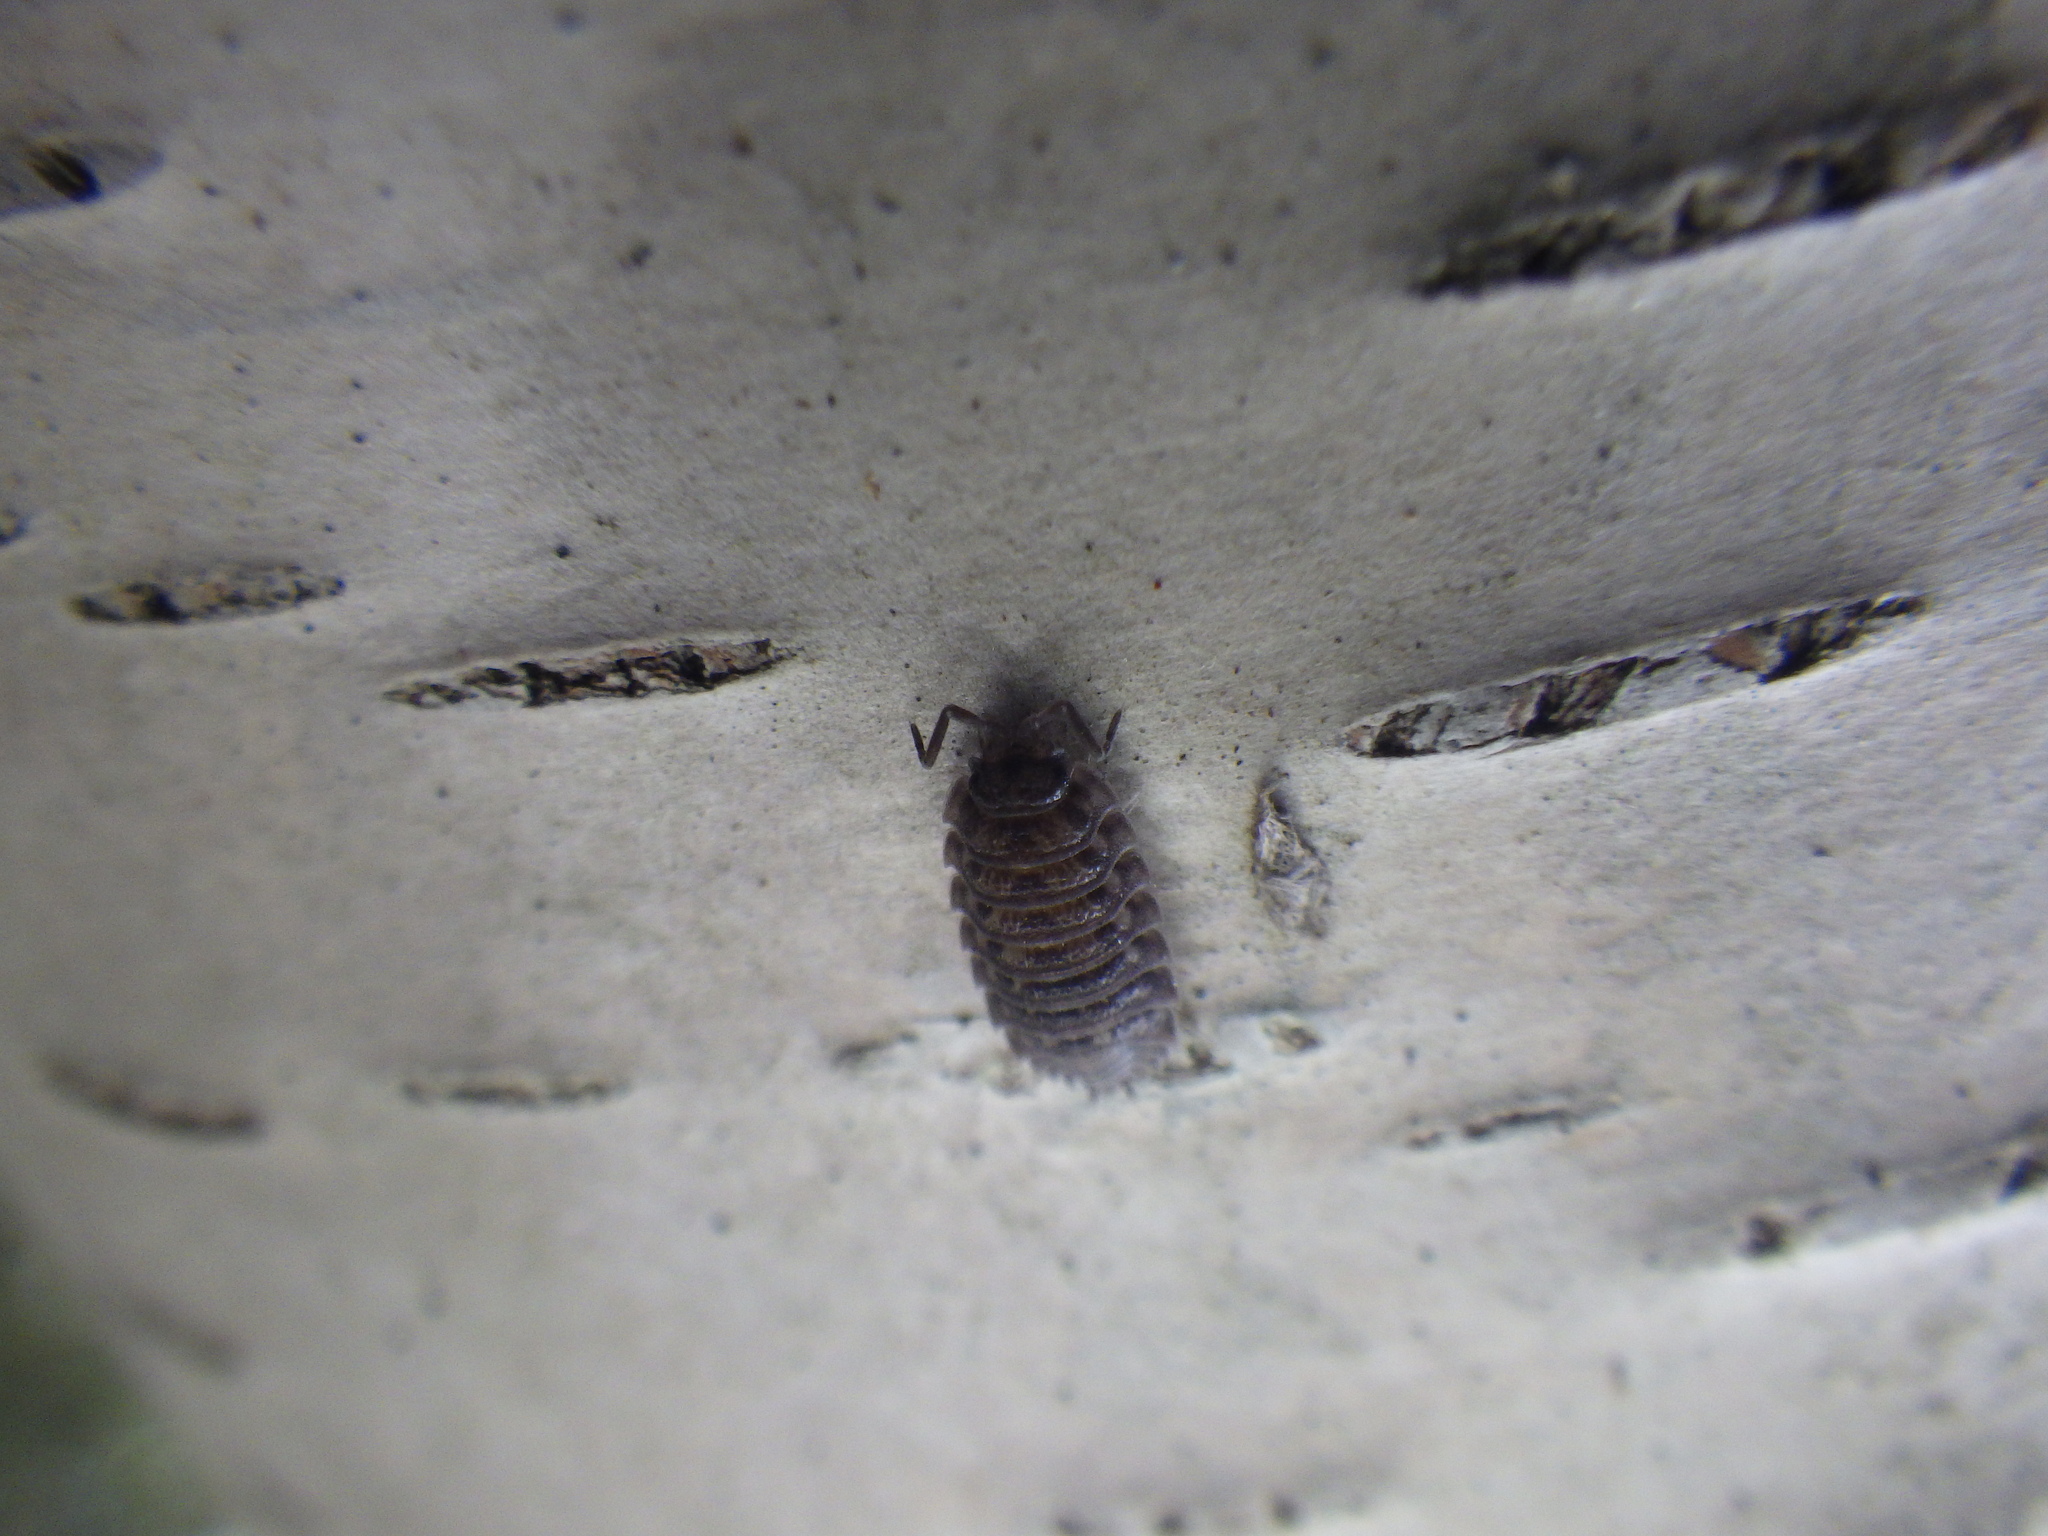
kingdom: Animalia
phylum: Arthropoda
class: Malacostraca
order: Isopoda
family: Oniscidae
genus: Oniscus
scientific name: Oniscus asellus
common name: Common shiny woodlouse
